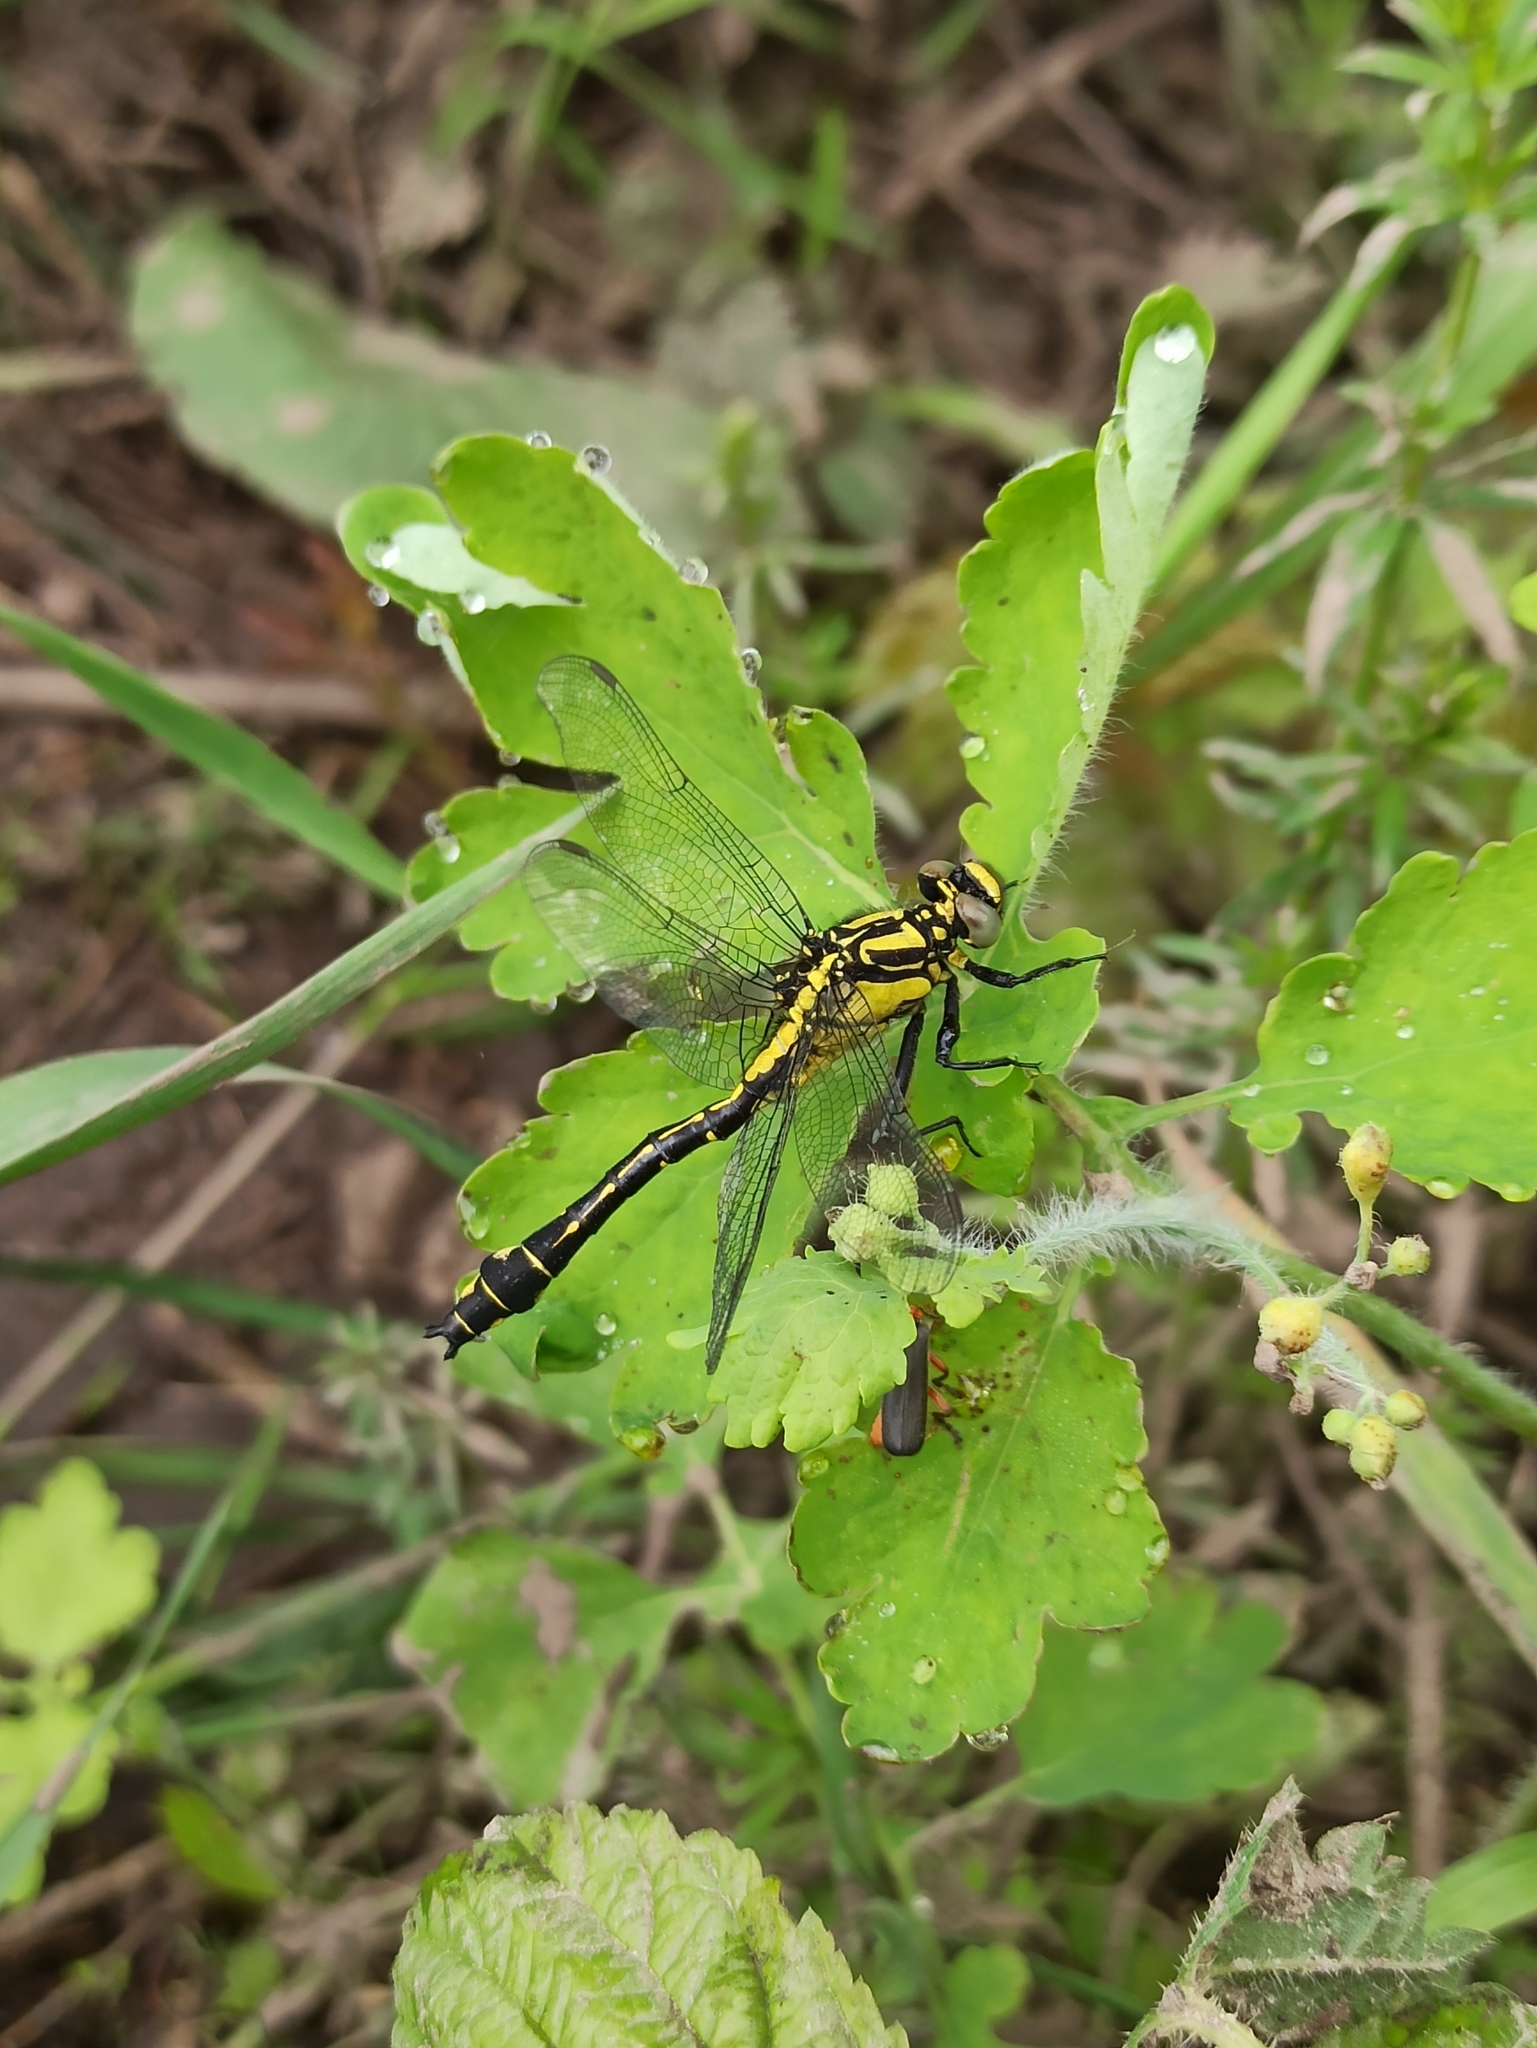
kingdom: Animalia
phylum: Arthropoda
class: Insecta
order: Odonata
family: Gomphidae
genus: Gomphus
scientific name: Gomphus vulgatissimus
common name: Club-tailed dragonfly
